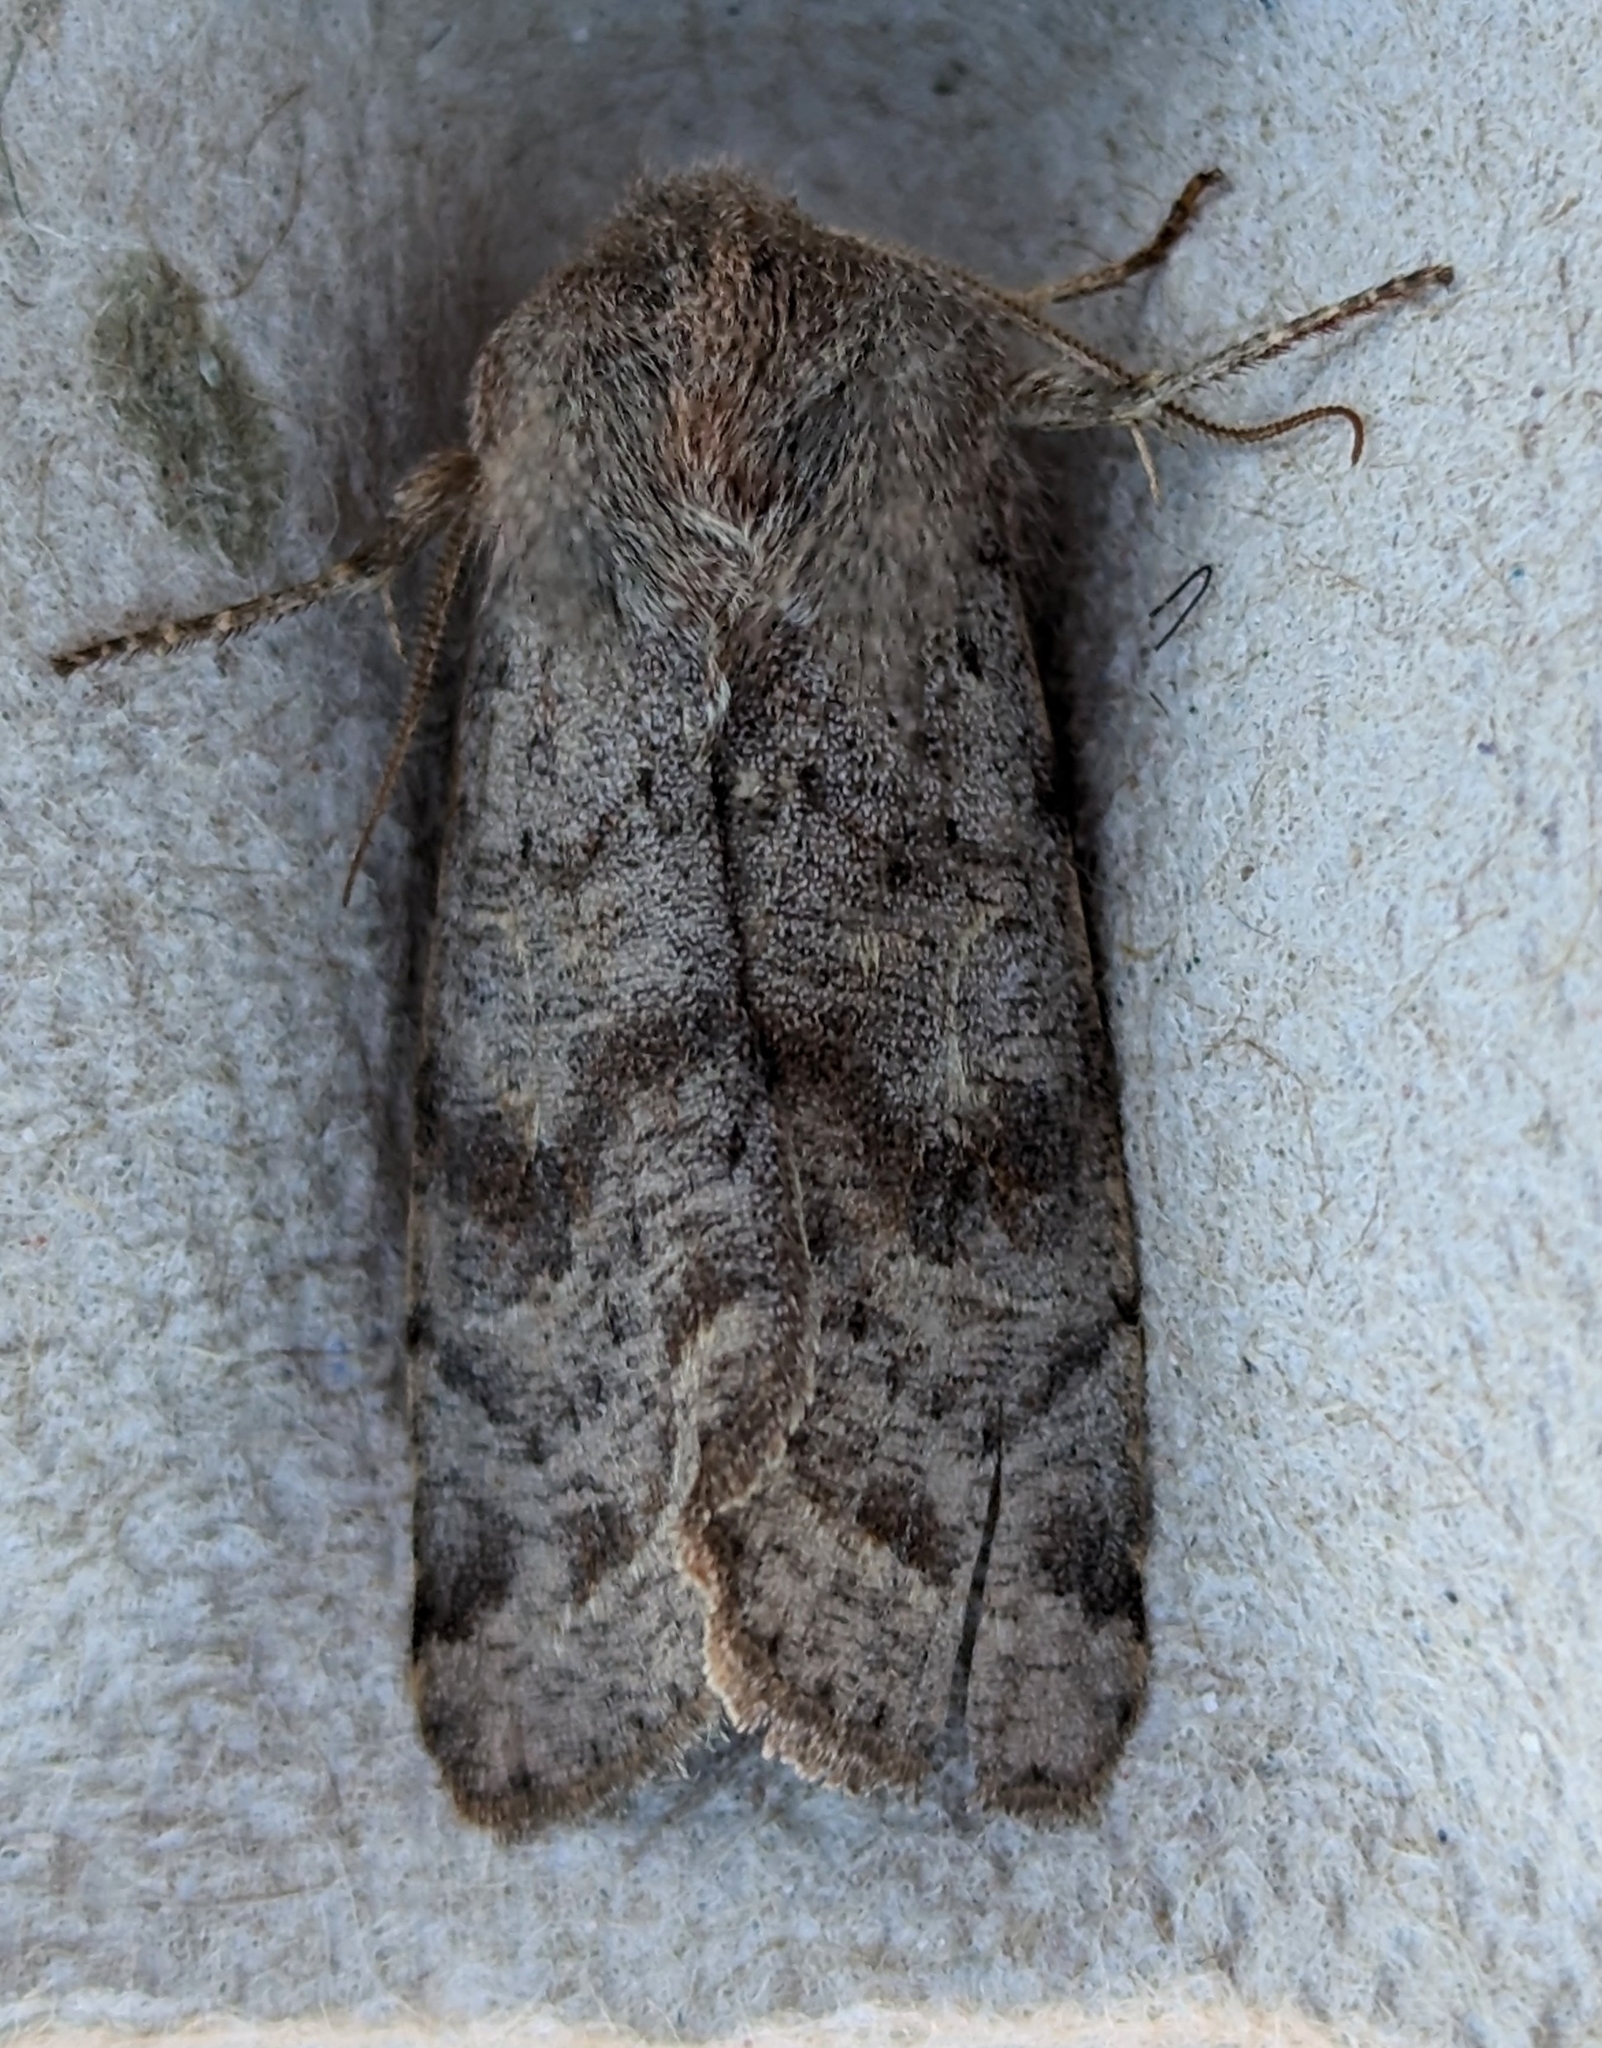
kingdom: Animalia
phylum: Arthropoda
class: Insecta
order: Lepidoptera
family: Noctuidae
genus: Orthosia
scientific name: Orthosia hibisci
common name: Green fruitworm
